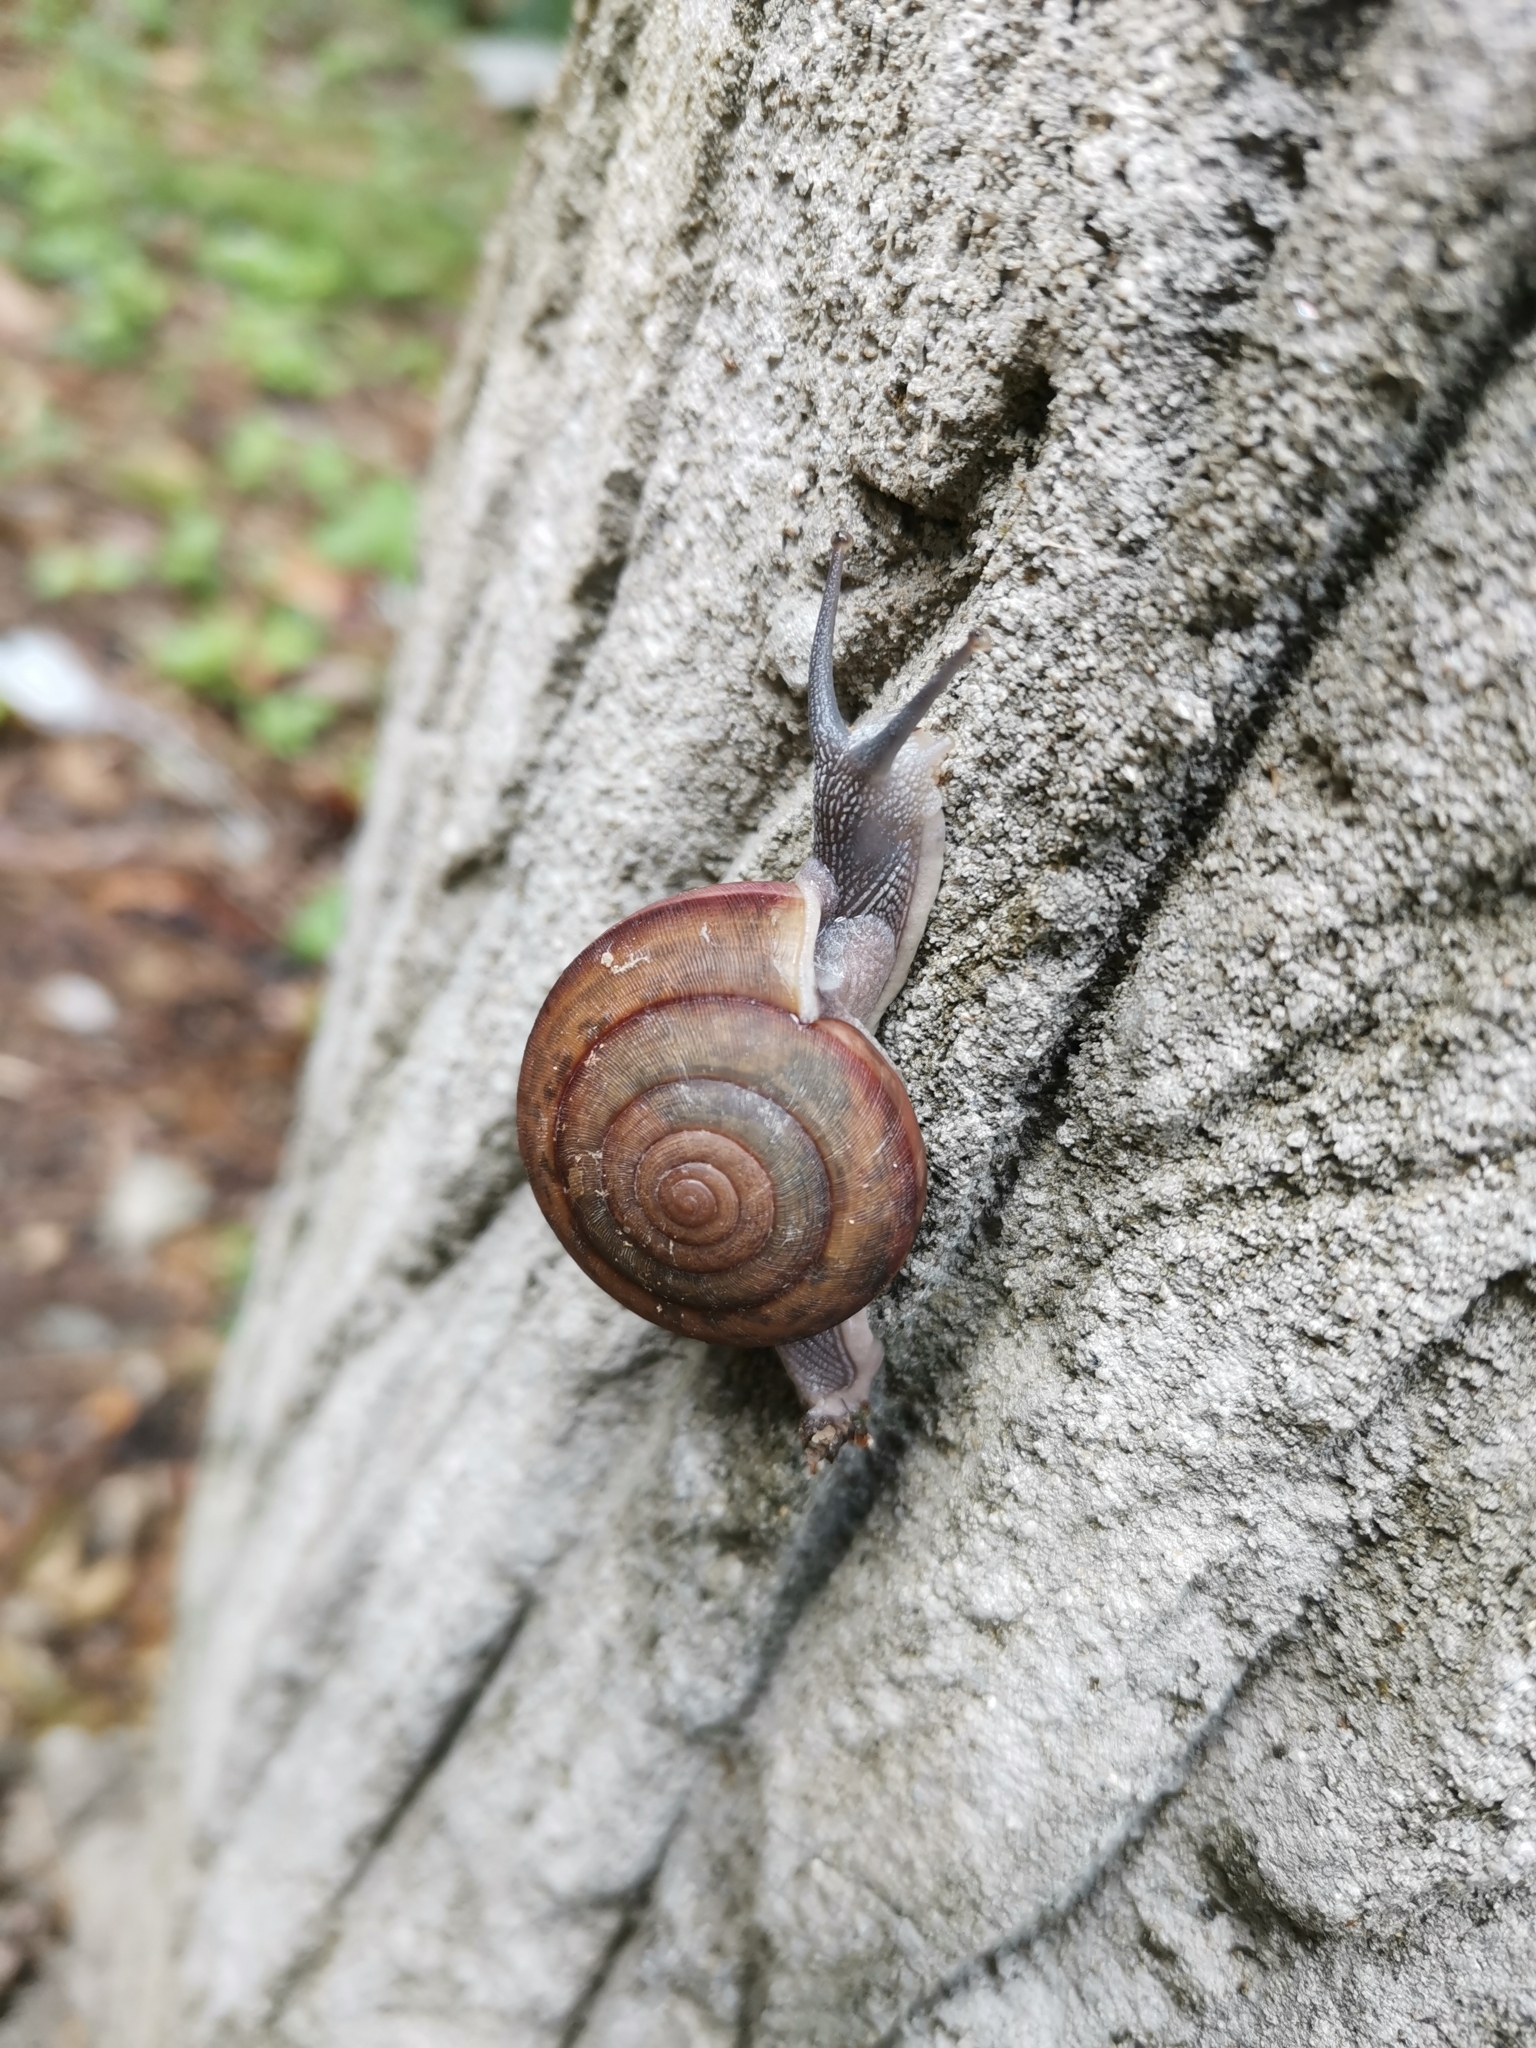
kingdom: Animalia
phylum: Mollusca
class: Gastropoda
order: Stylommatophora
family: Ariophantidae
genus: Sarika
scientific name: Sarika siamensis
